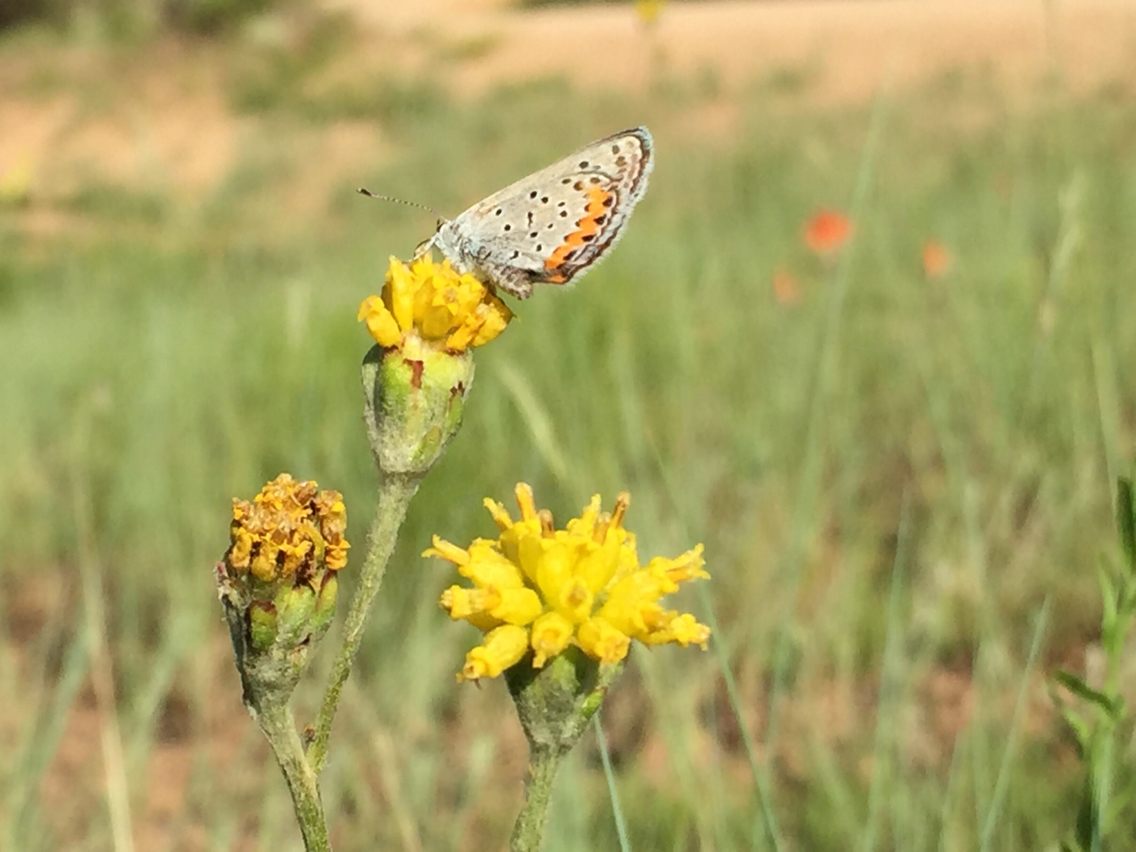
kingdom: Animalia
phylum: Arthropoda
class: Insecta
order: Lepidoptera
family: Lycaenidae
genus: Icaricia
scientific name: Icaricia lupini
